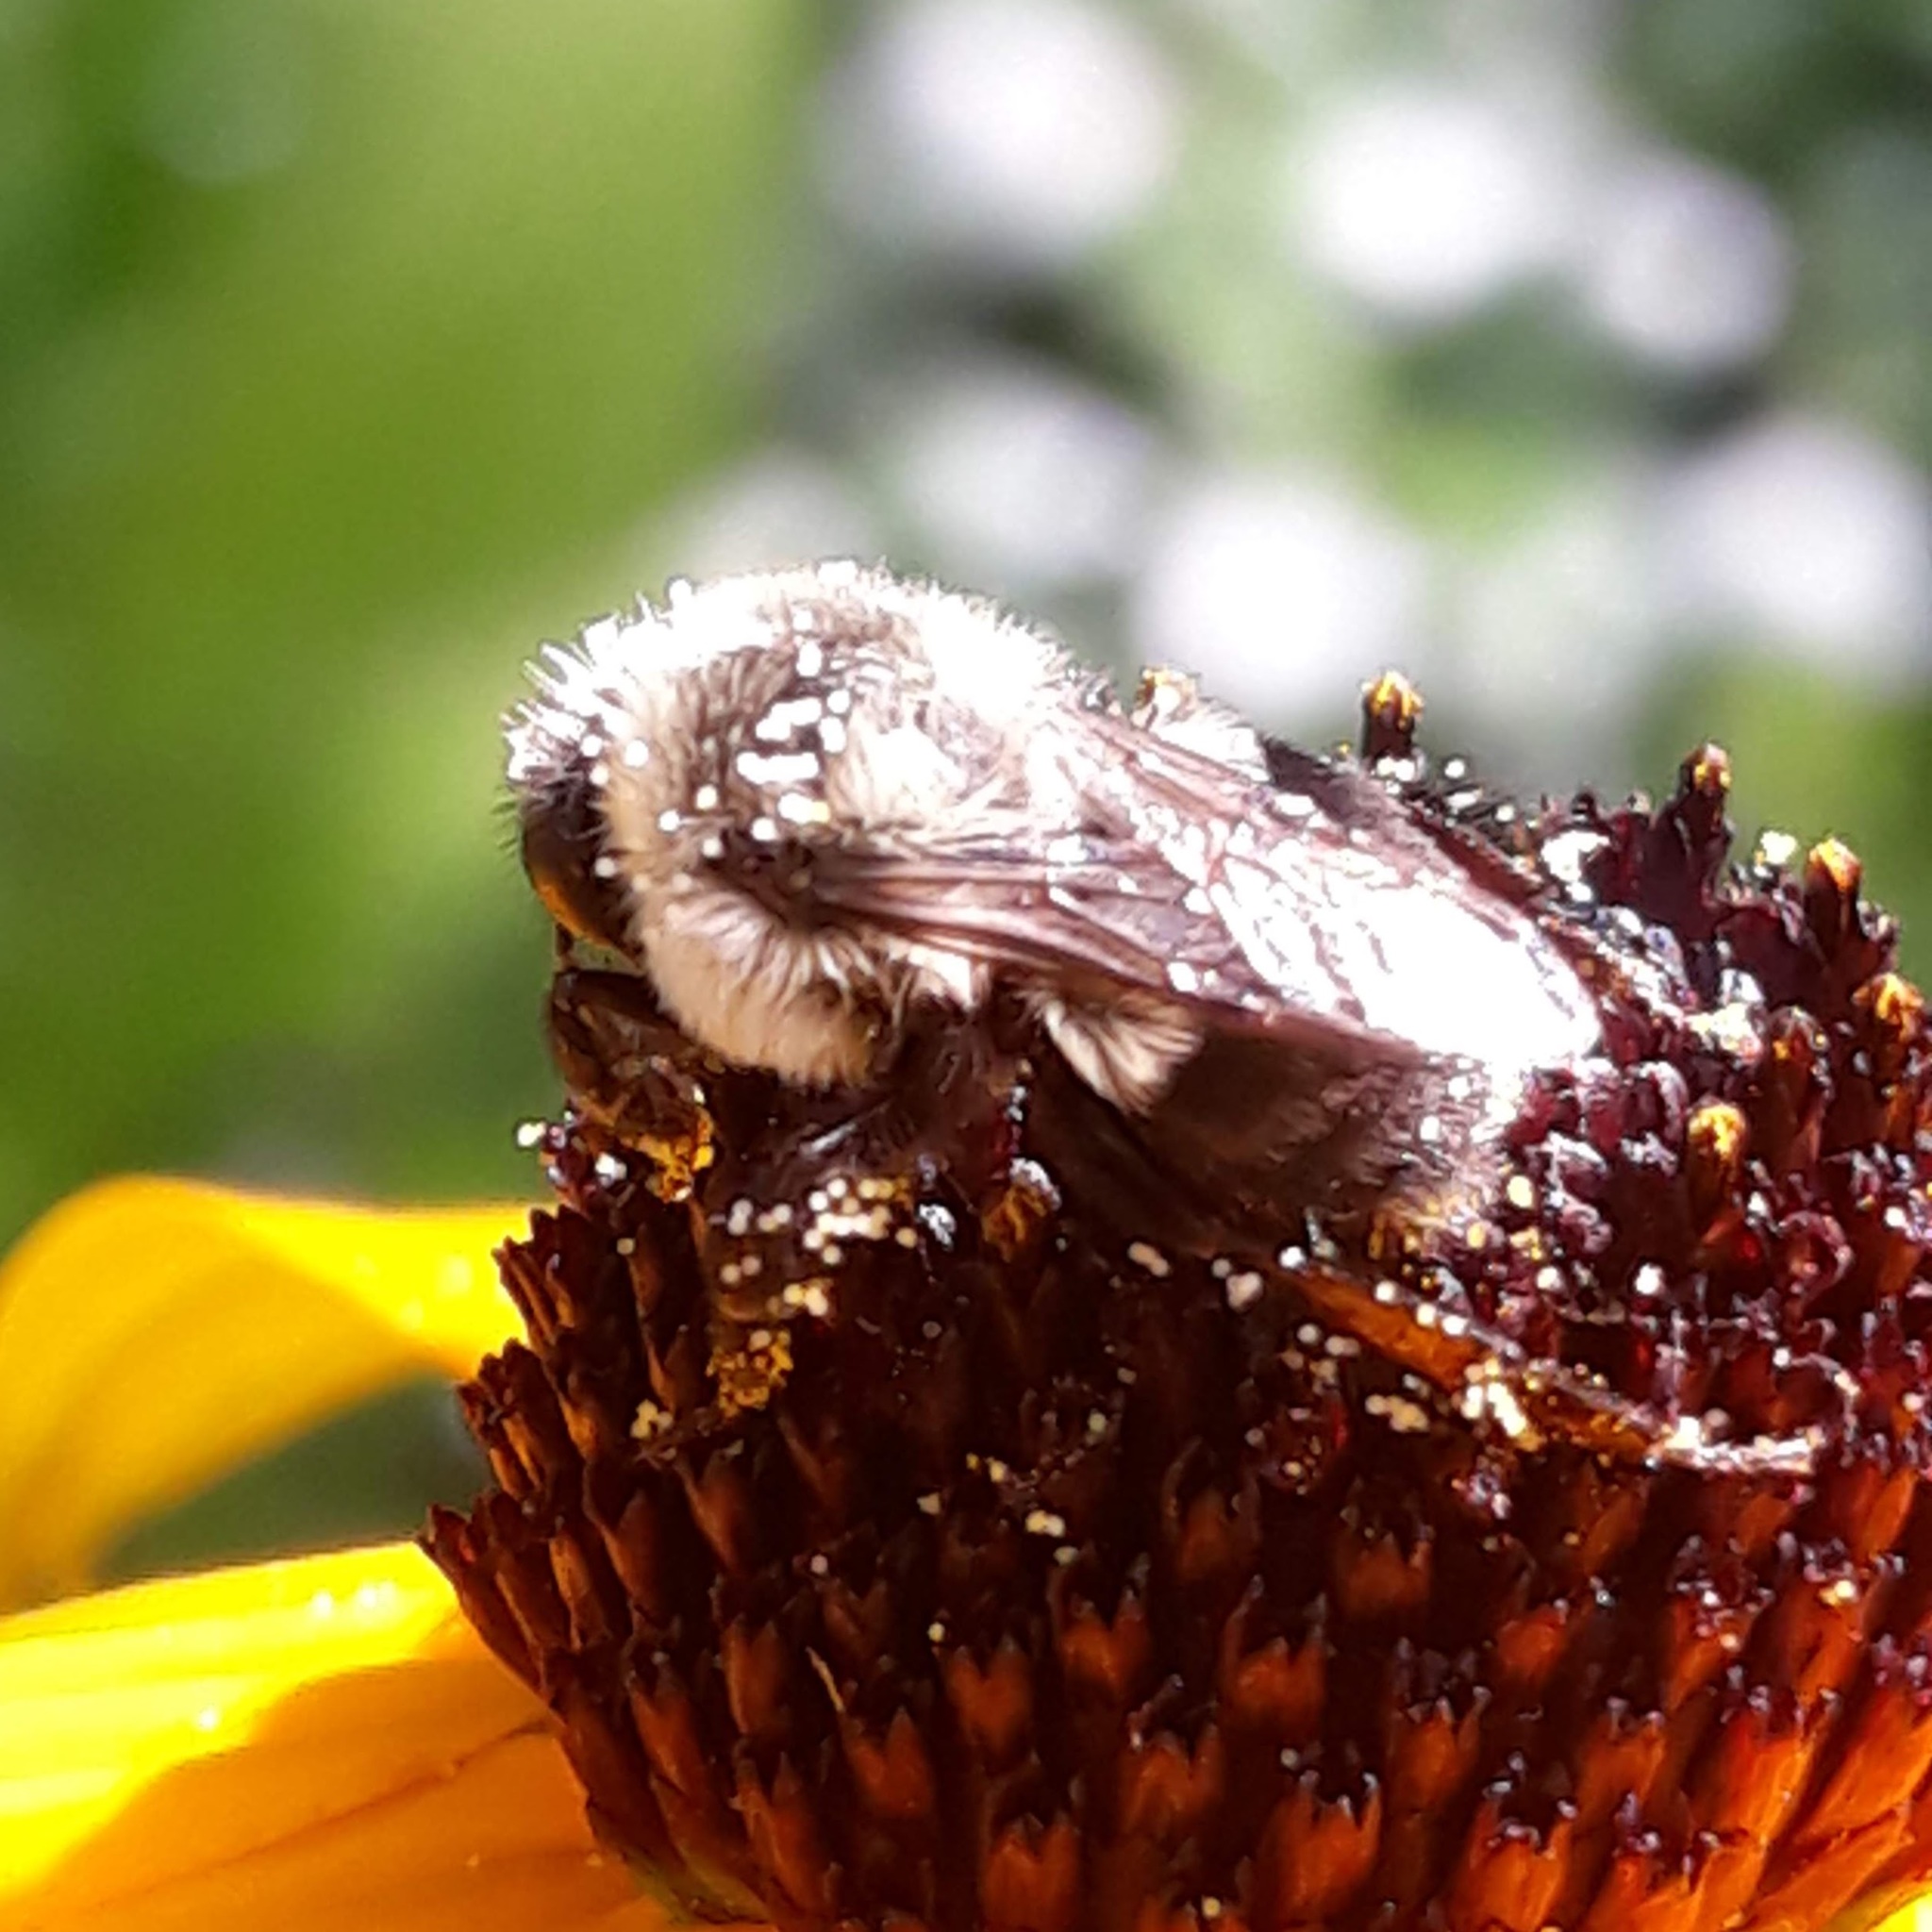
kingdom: Animalia
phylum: Arthropoda
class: Insecta
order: Hymenoptera
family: Apidae
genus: Bombus
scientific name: Bombus impatiens
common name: Common eastern bumble bee
